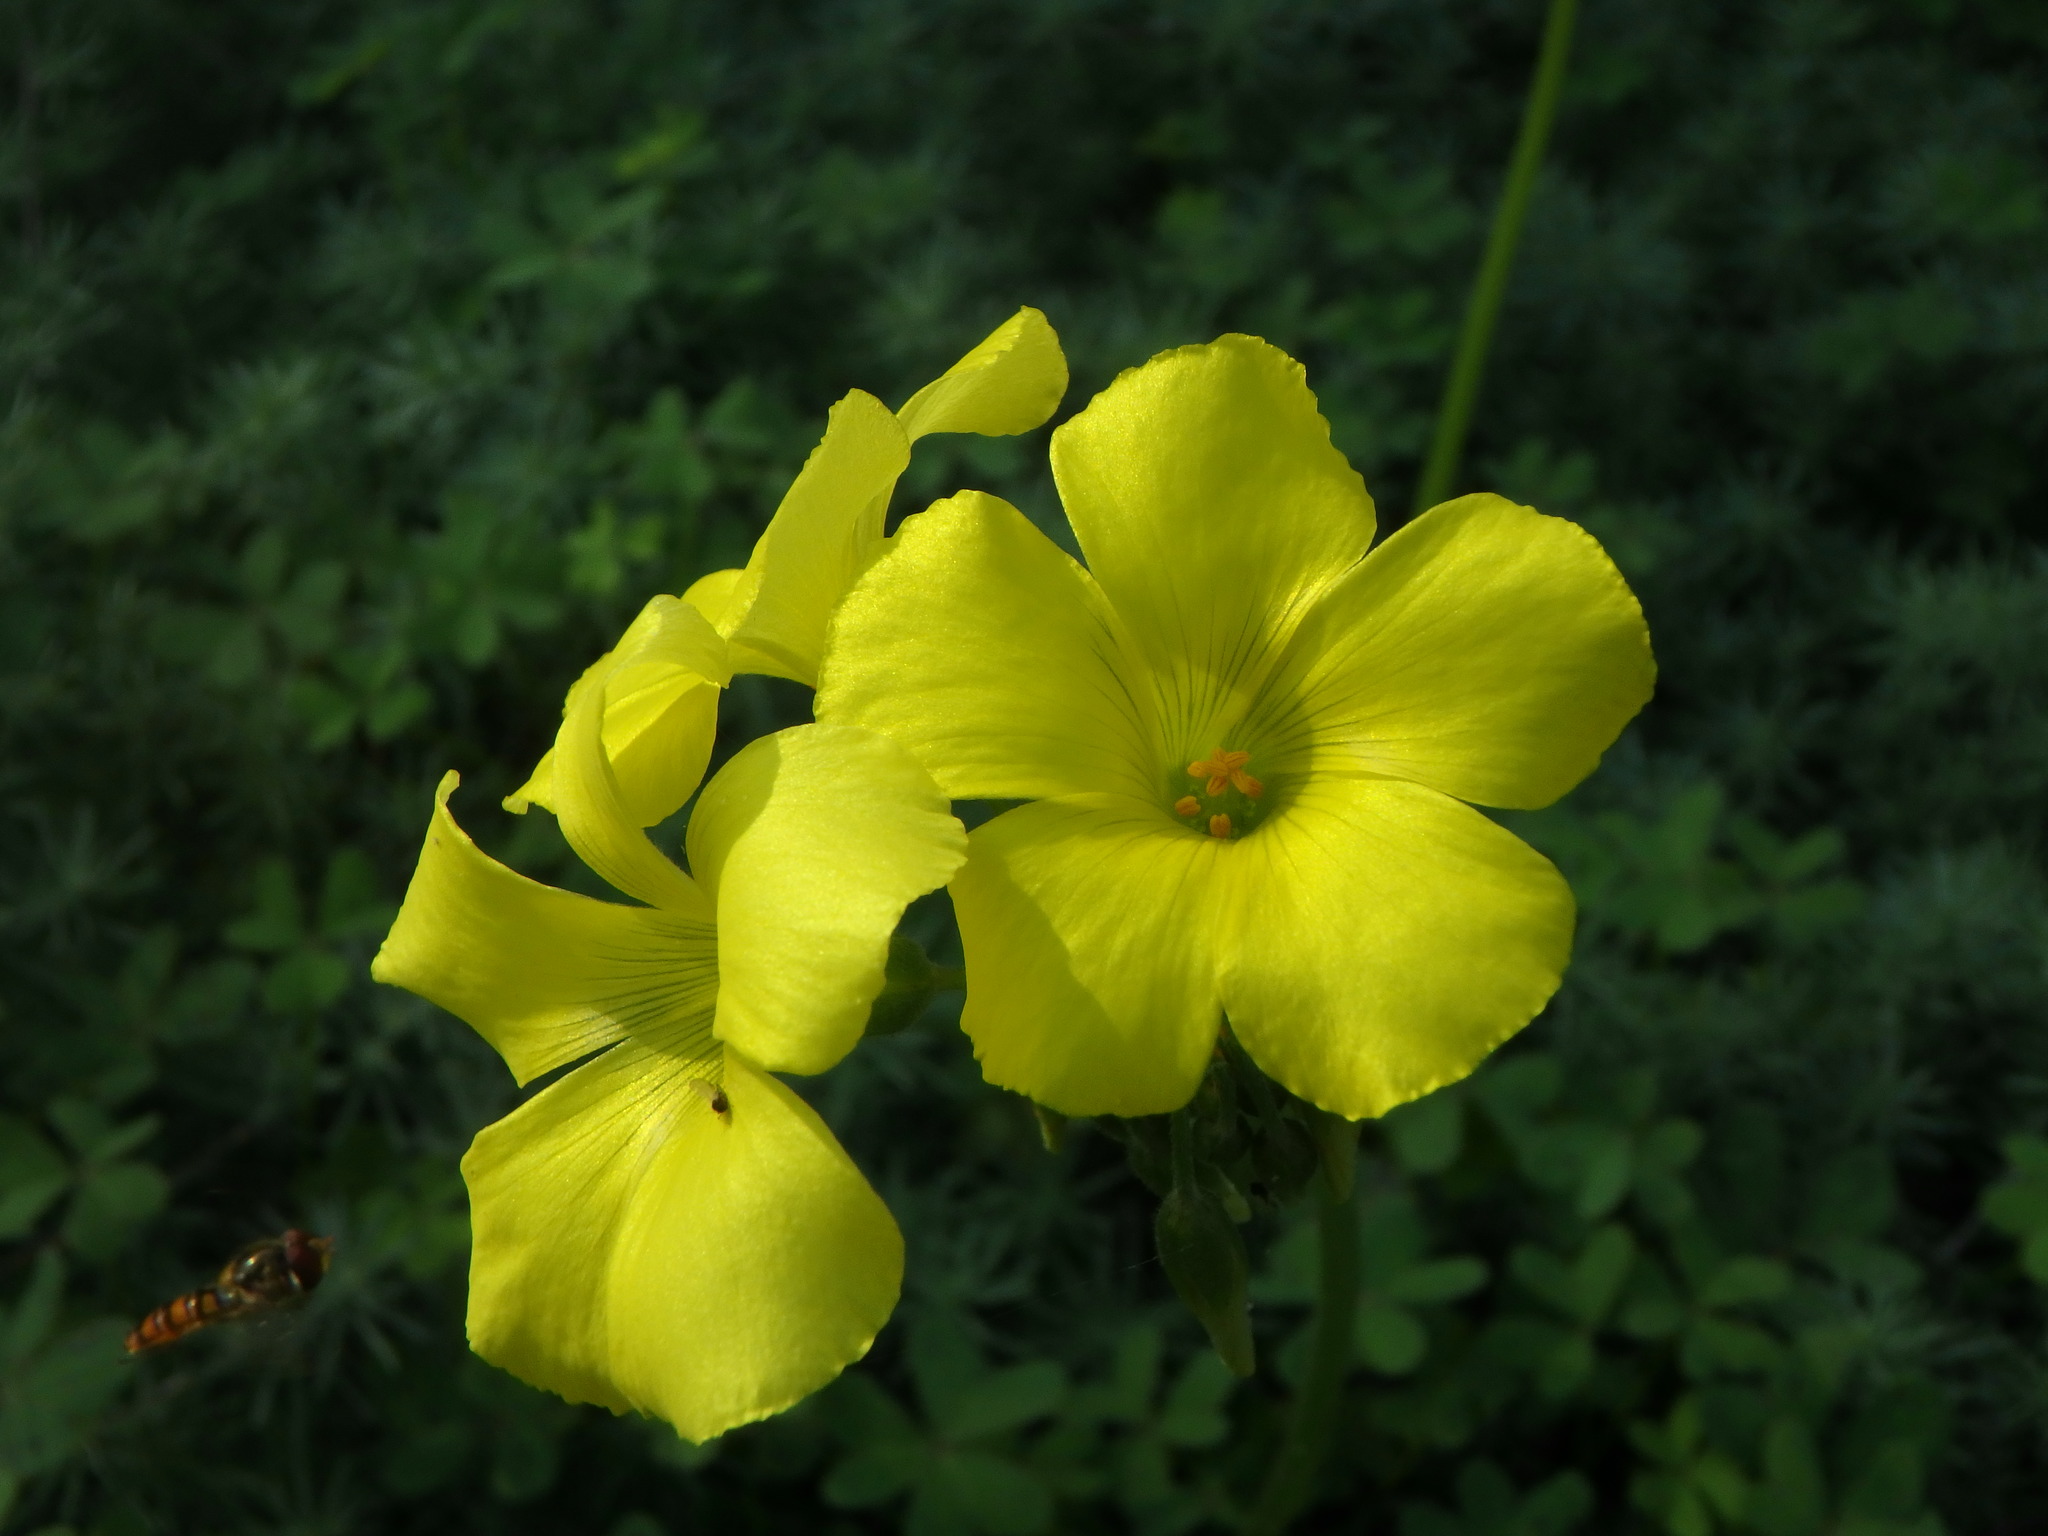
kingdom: Plantae
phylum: Tracheophyta
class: Magnoliopsida
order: Oxalidales
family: Oxalidaceae
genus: Oxalis
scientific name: Oxalis pes-caprae
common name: Bermuda-buttercup
